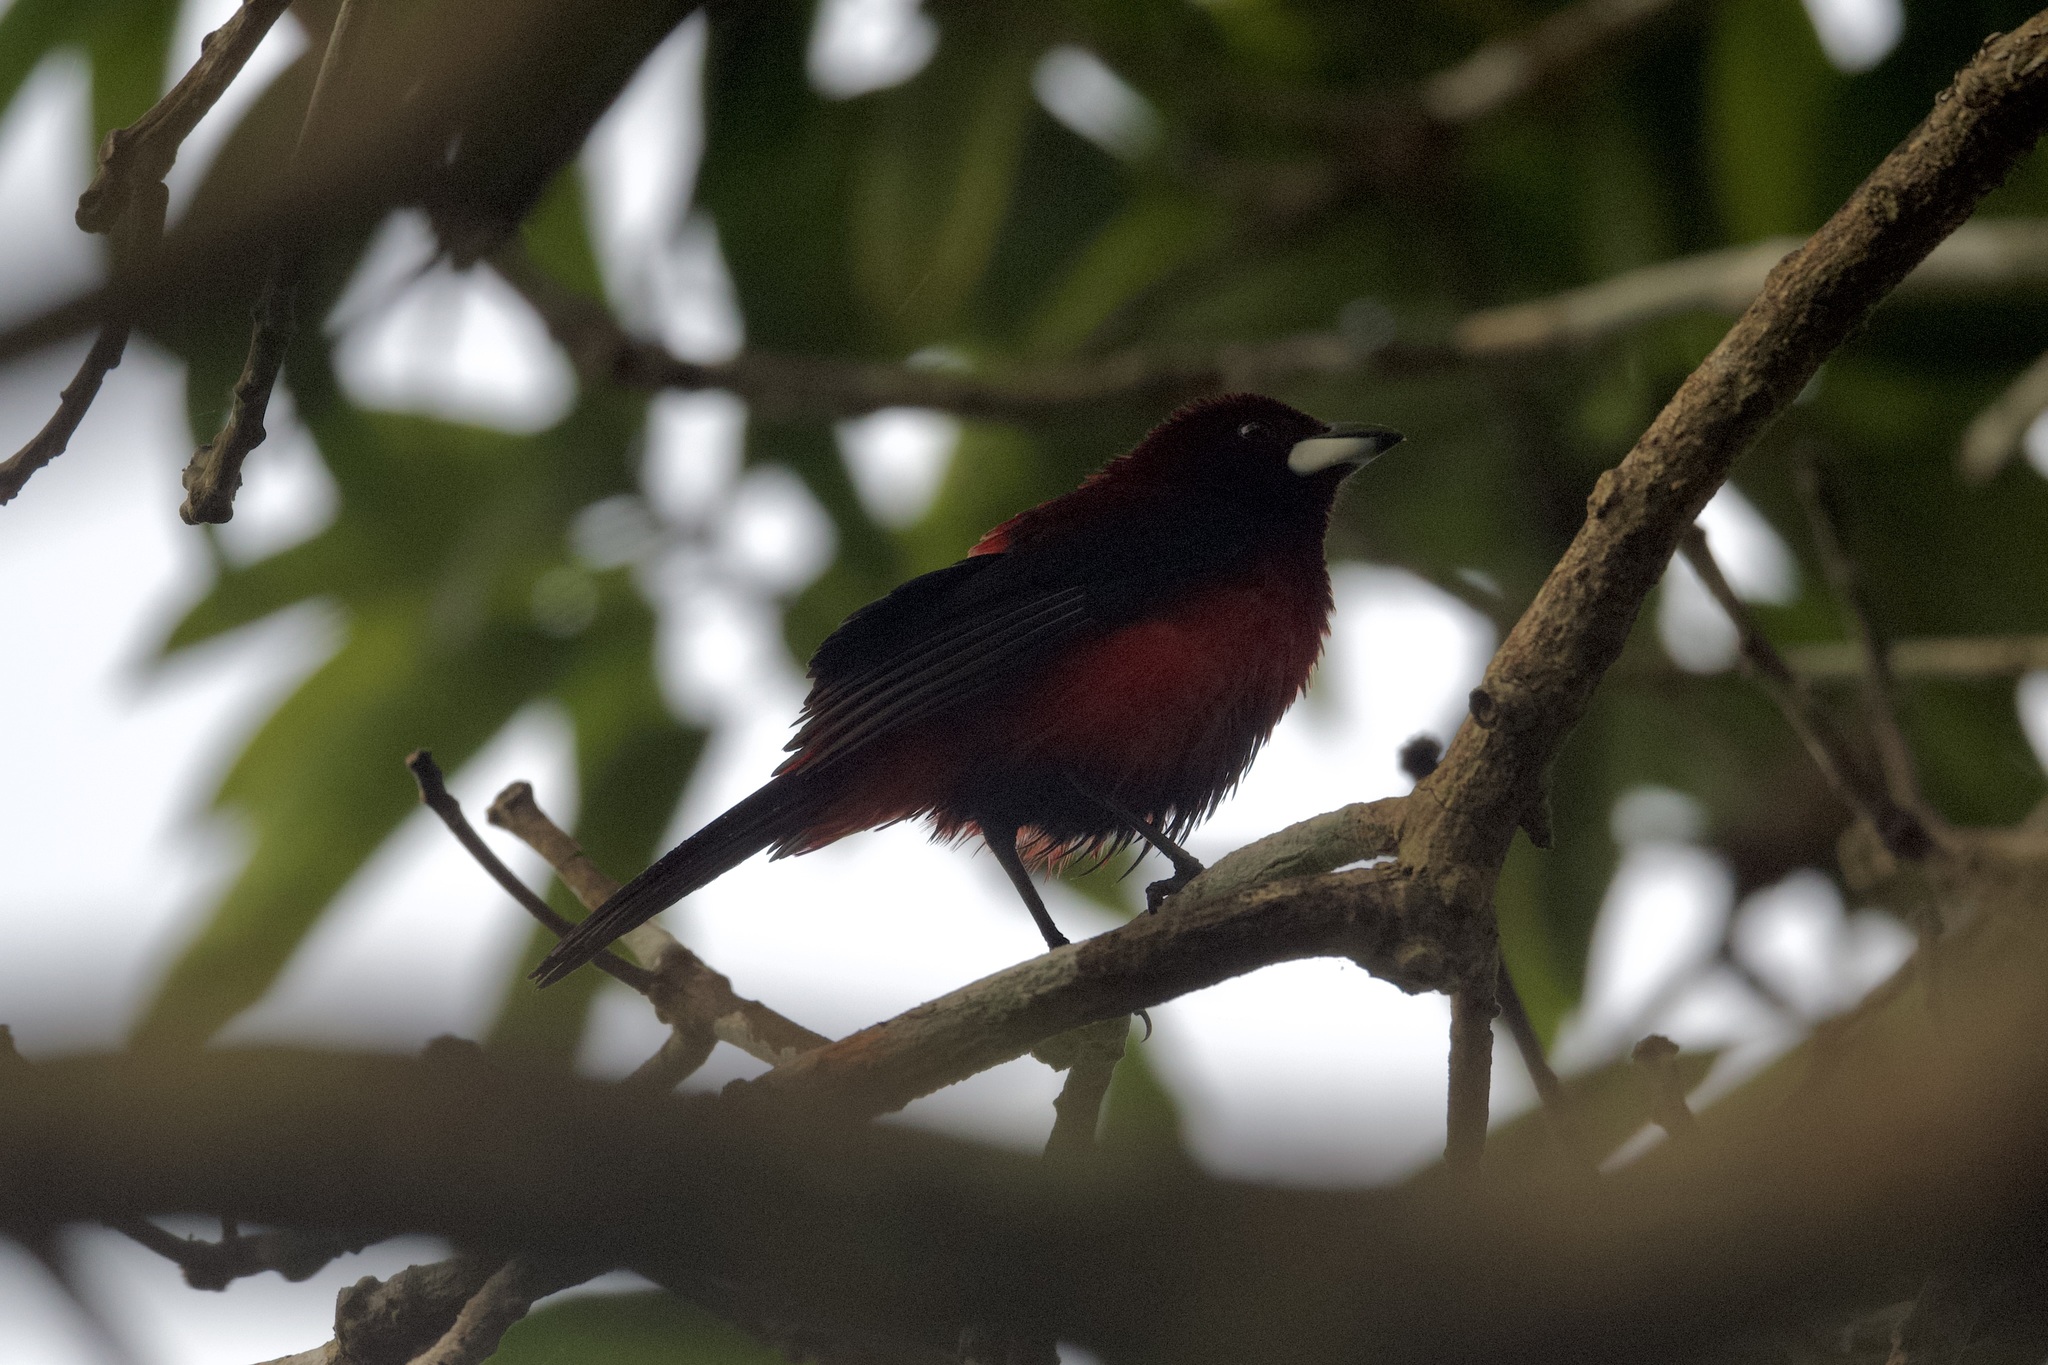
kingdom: Animalia
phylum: Chordata
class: Aves
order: Passeriformes
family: Thraupidae
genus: Ramphocelus
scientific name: Ramphocelus dimidiatus
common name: Crimson-backed tanager
